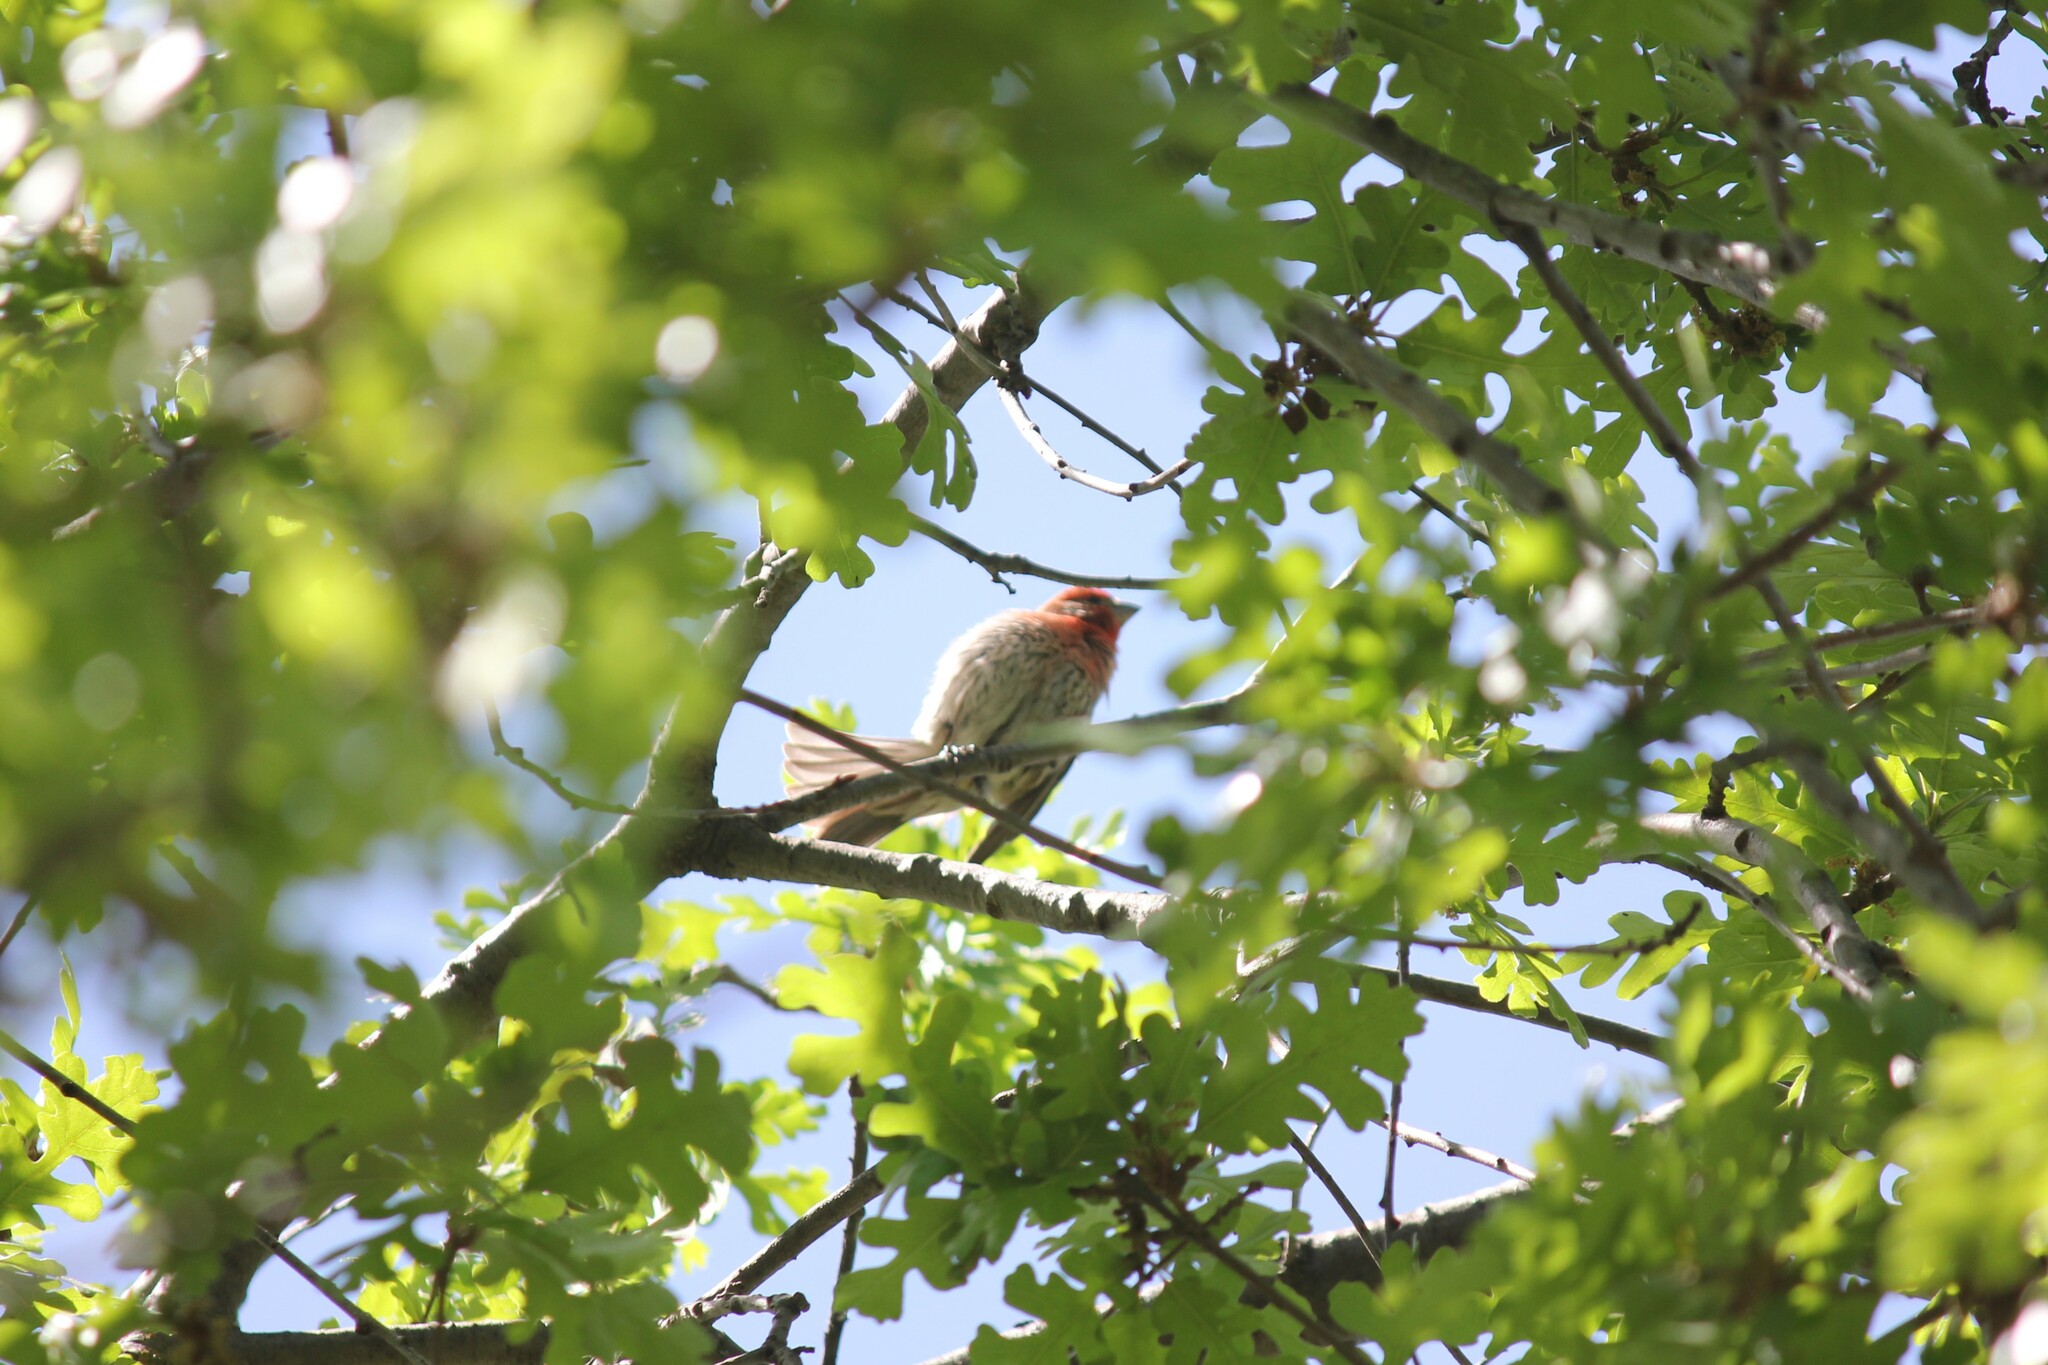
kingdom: Animalia
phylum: Chordata
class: Aves
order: Passeriformes
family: Fringillidae
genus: Haemorhous
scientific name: Haemorhous mexicanus
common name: House finch
